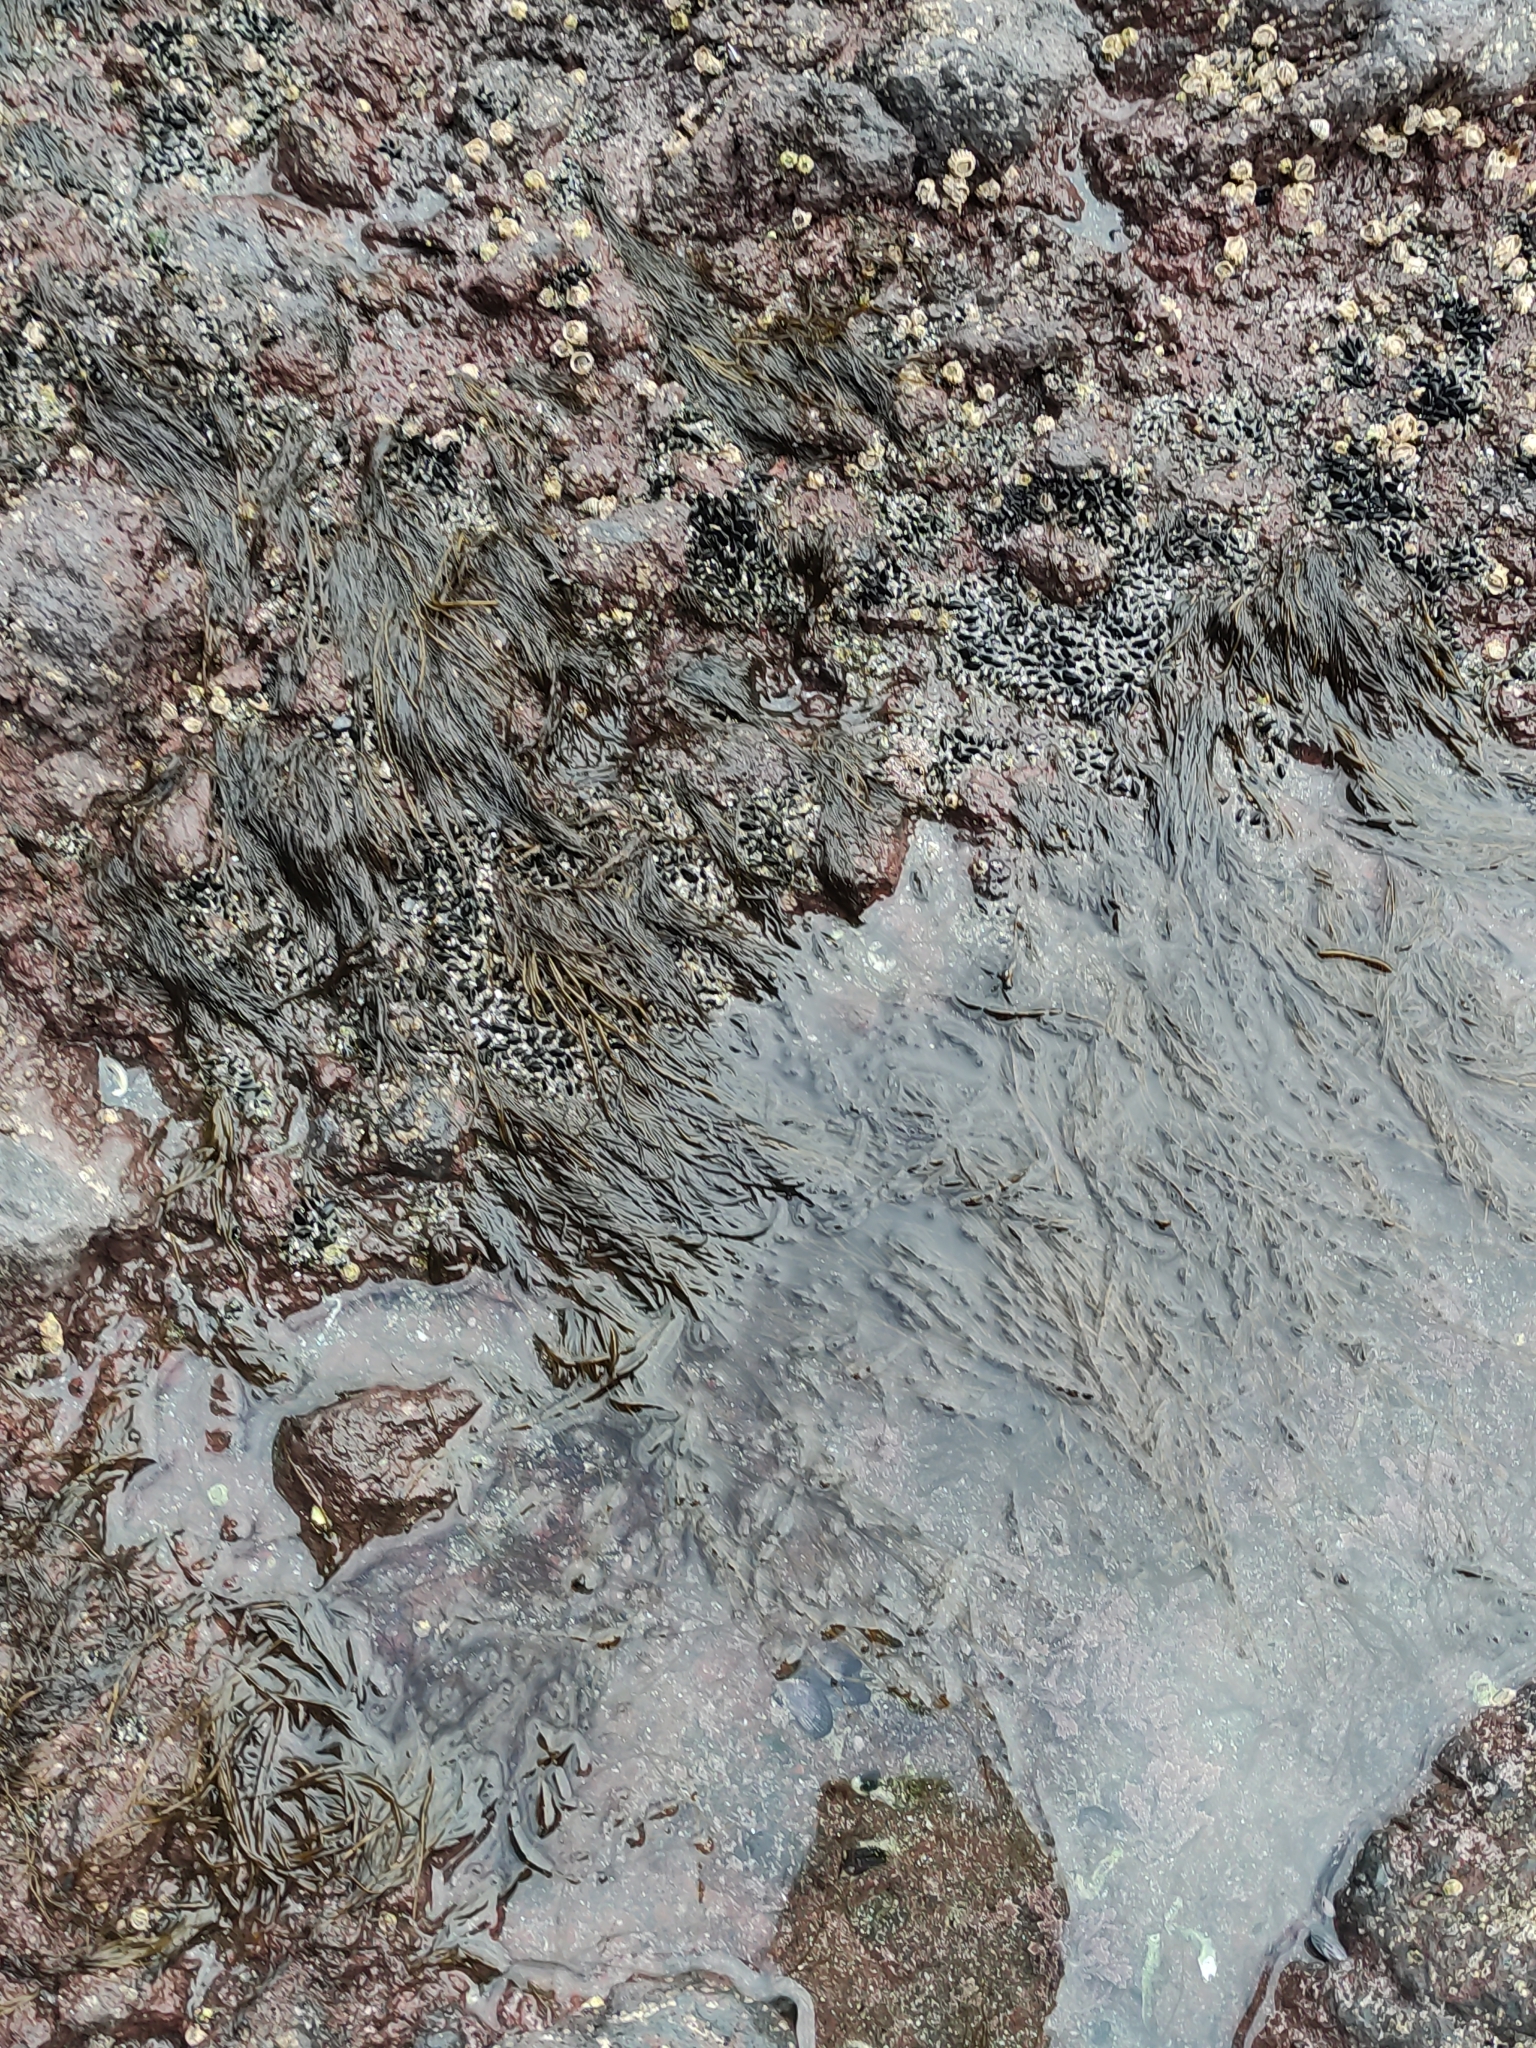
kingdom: Chromista
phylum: Ochrophyta
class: Phaeophyceae
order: Scytosiphonales
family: Scytosiphonaceae
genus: Scytosiphon
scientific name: Scytosiphon lomentaria
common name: Beanweed
